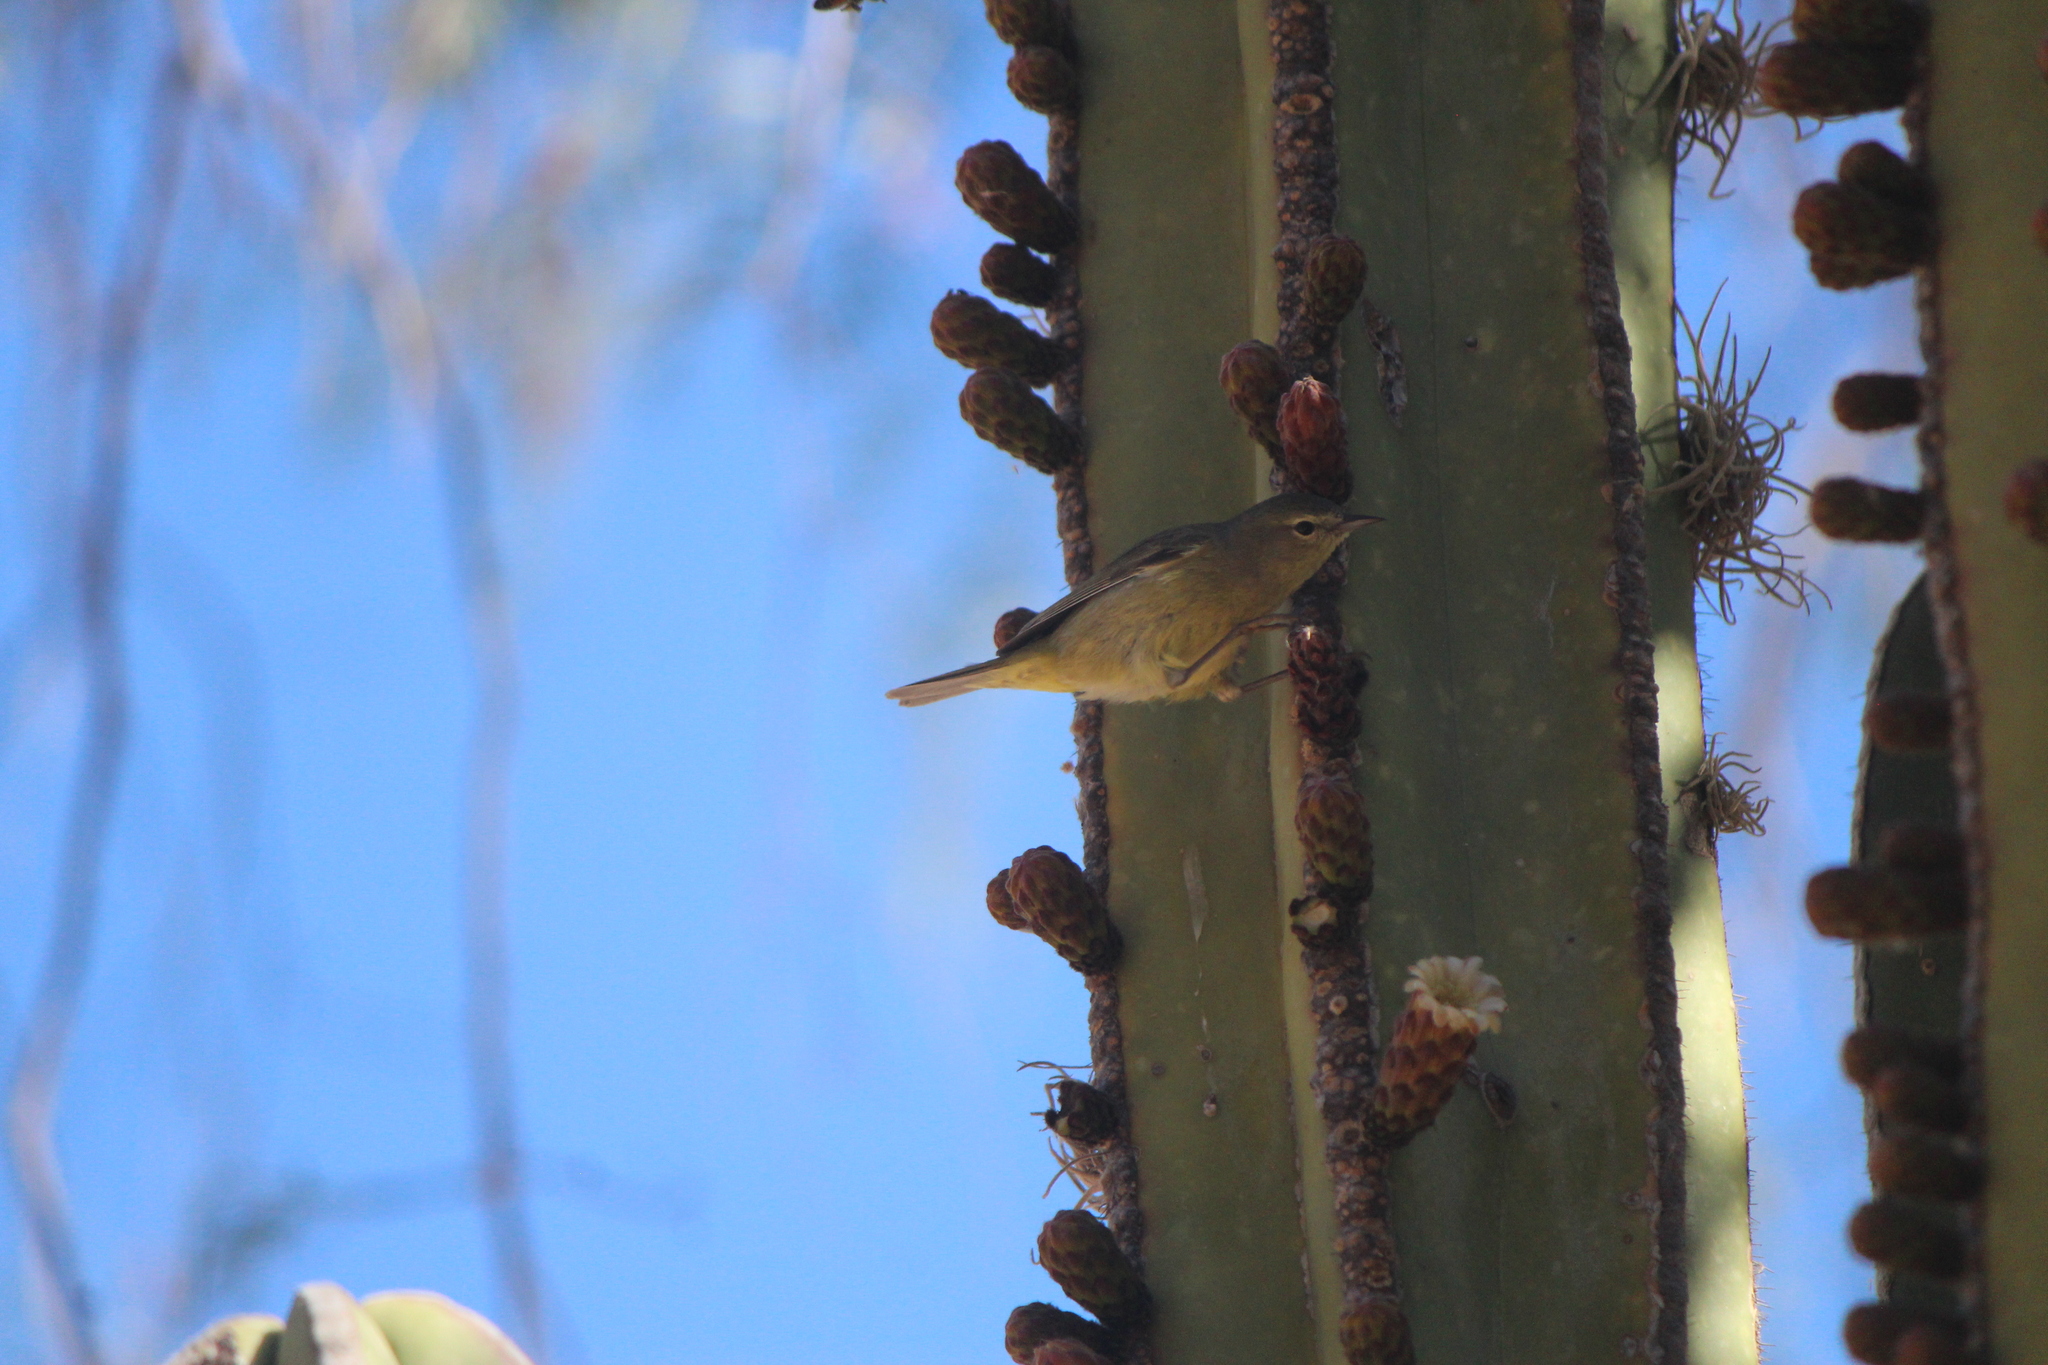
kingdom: Animalia
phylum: Chordata
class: Aves
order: Passeriformes
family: Parulidae
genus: Leiothlypis
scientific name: Leiothlypis celata
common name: Orange-crowned warbler
